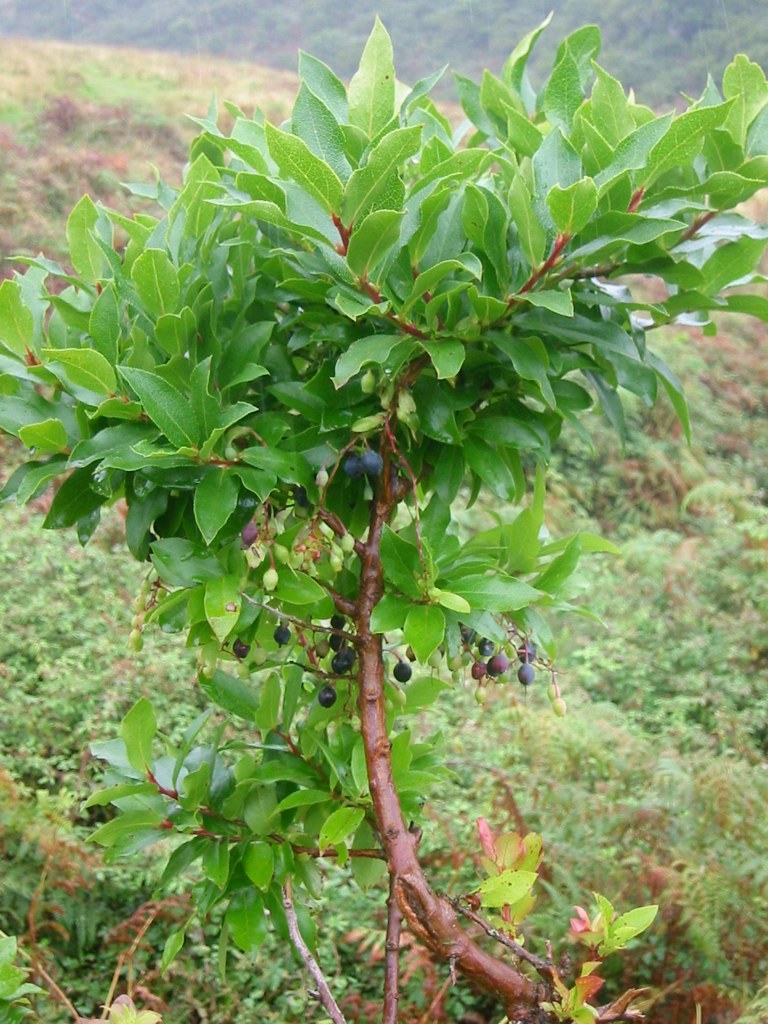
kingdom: Plantae
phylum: Tracheophyta
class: Magnoliopsida
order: Ericales
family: Ericaceae
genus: Vaccinium
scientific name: Vaccinium cylindraceum
